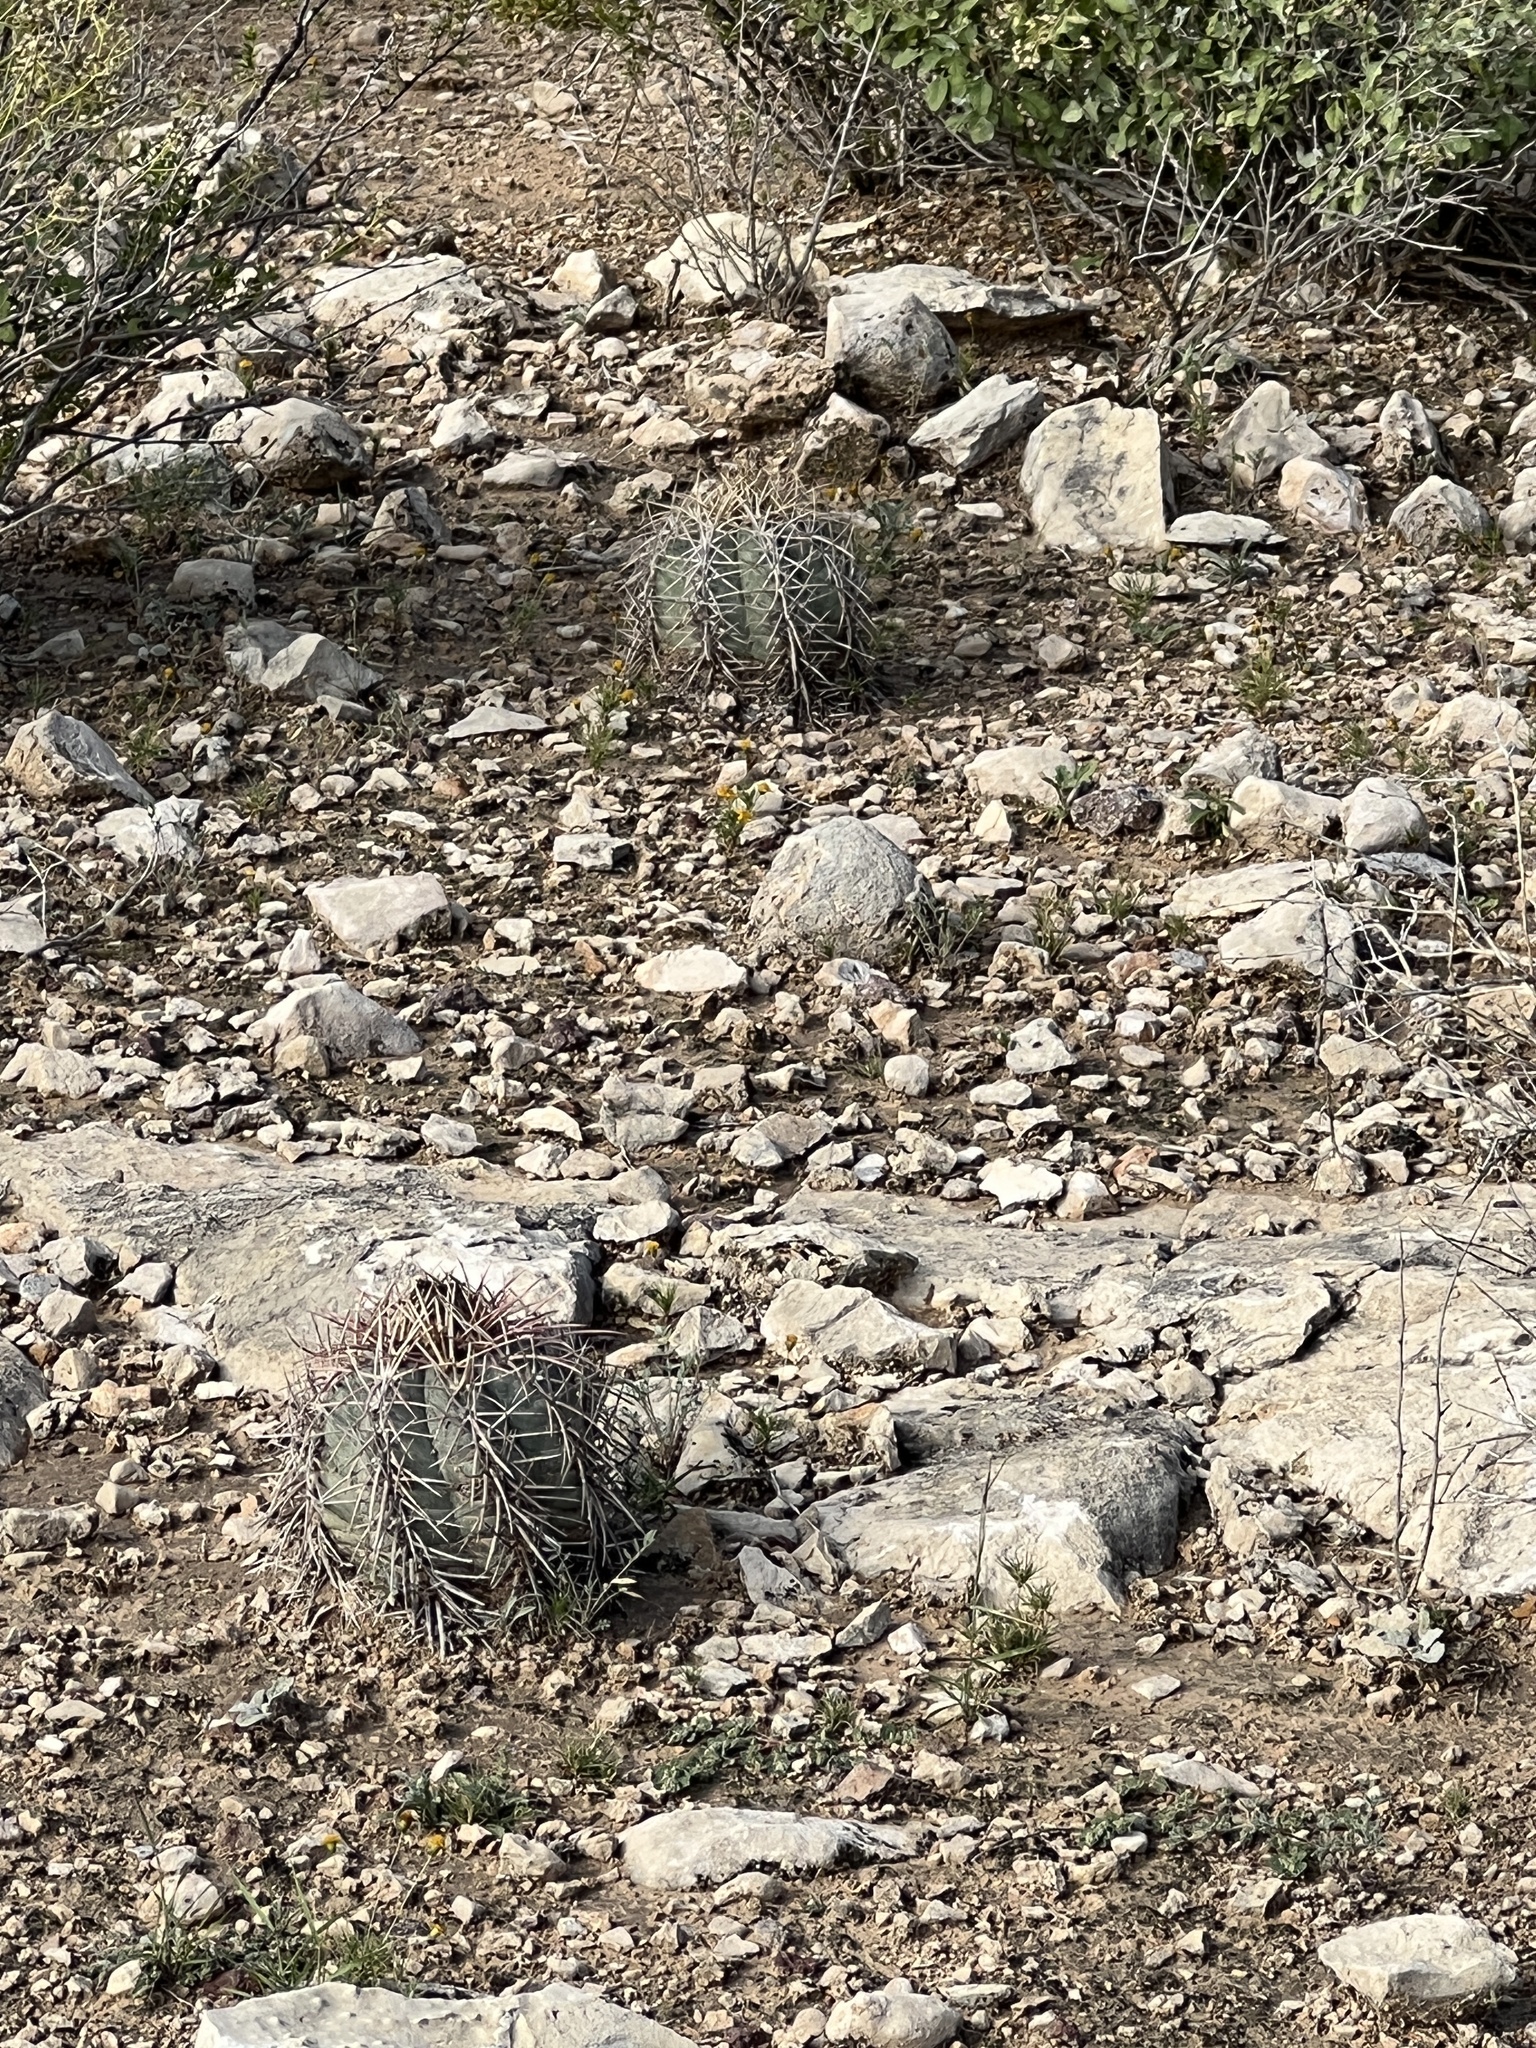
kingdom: Plantae
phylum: Tracheophyta
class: Magnoliopsida
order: Caryophyllales
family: Cactaceae
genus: Echinocactus
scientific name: Echinocactus horizonthalonius
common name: Devilshead
